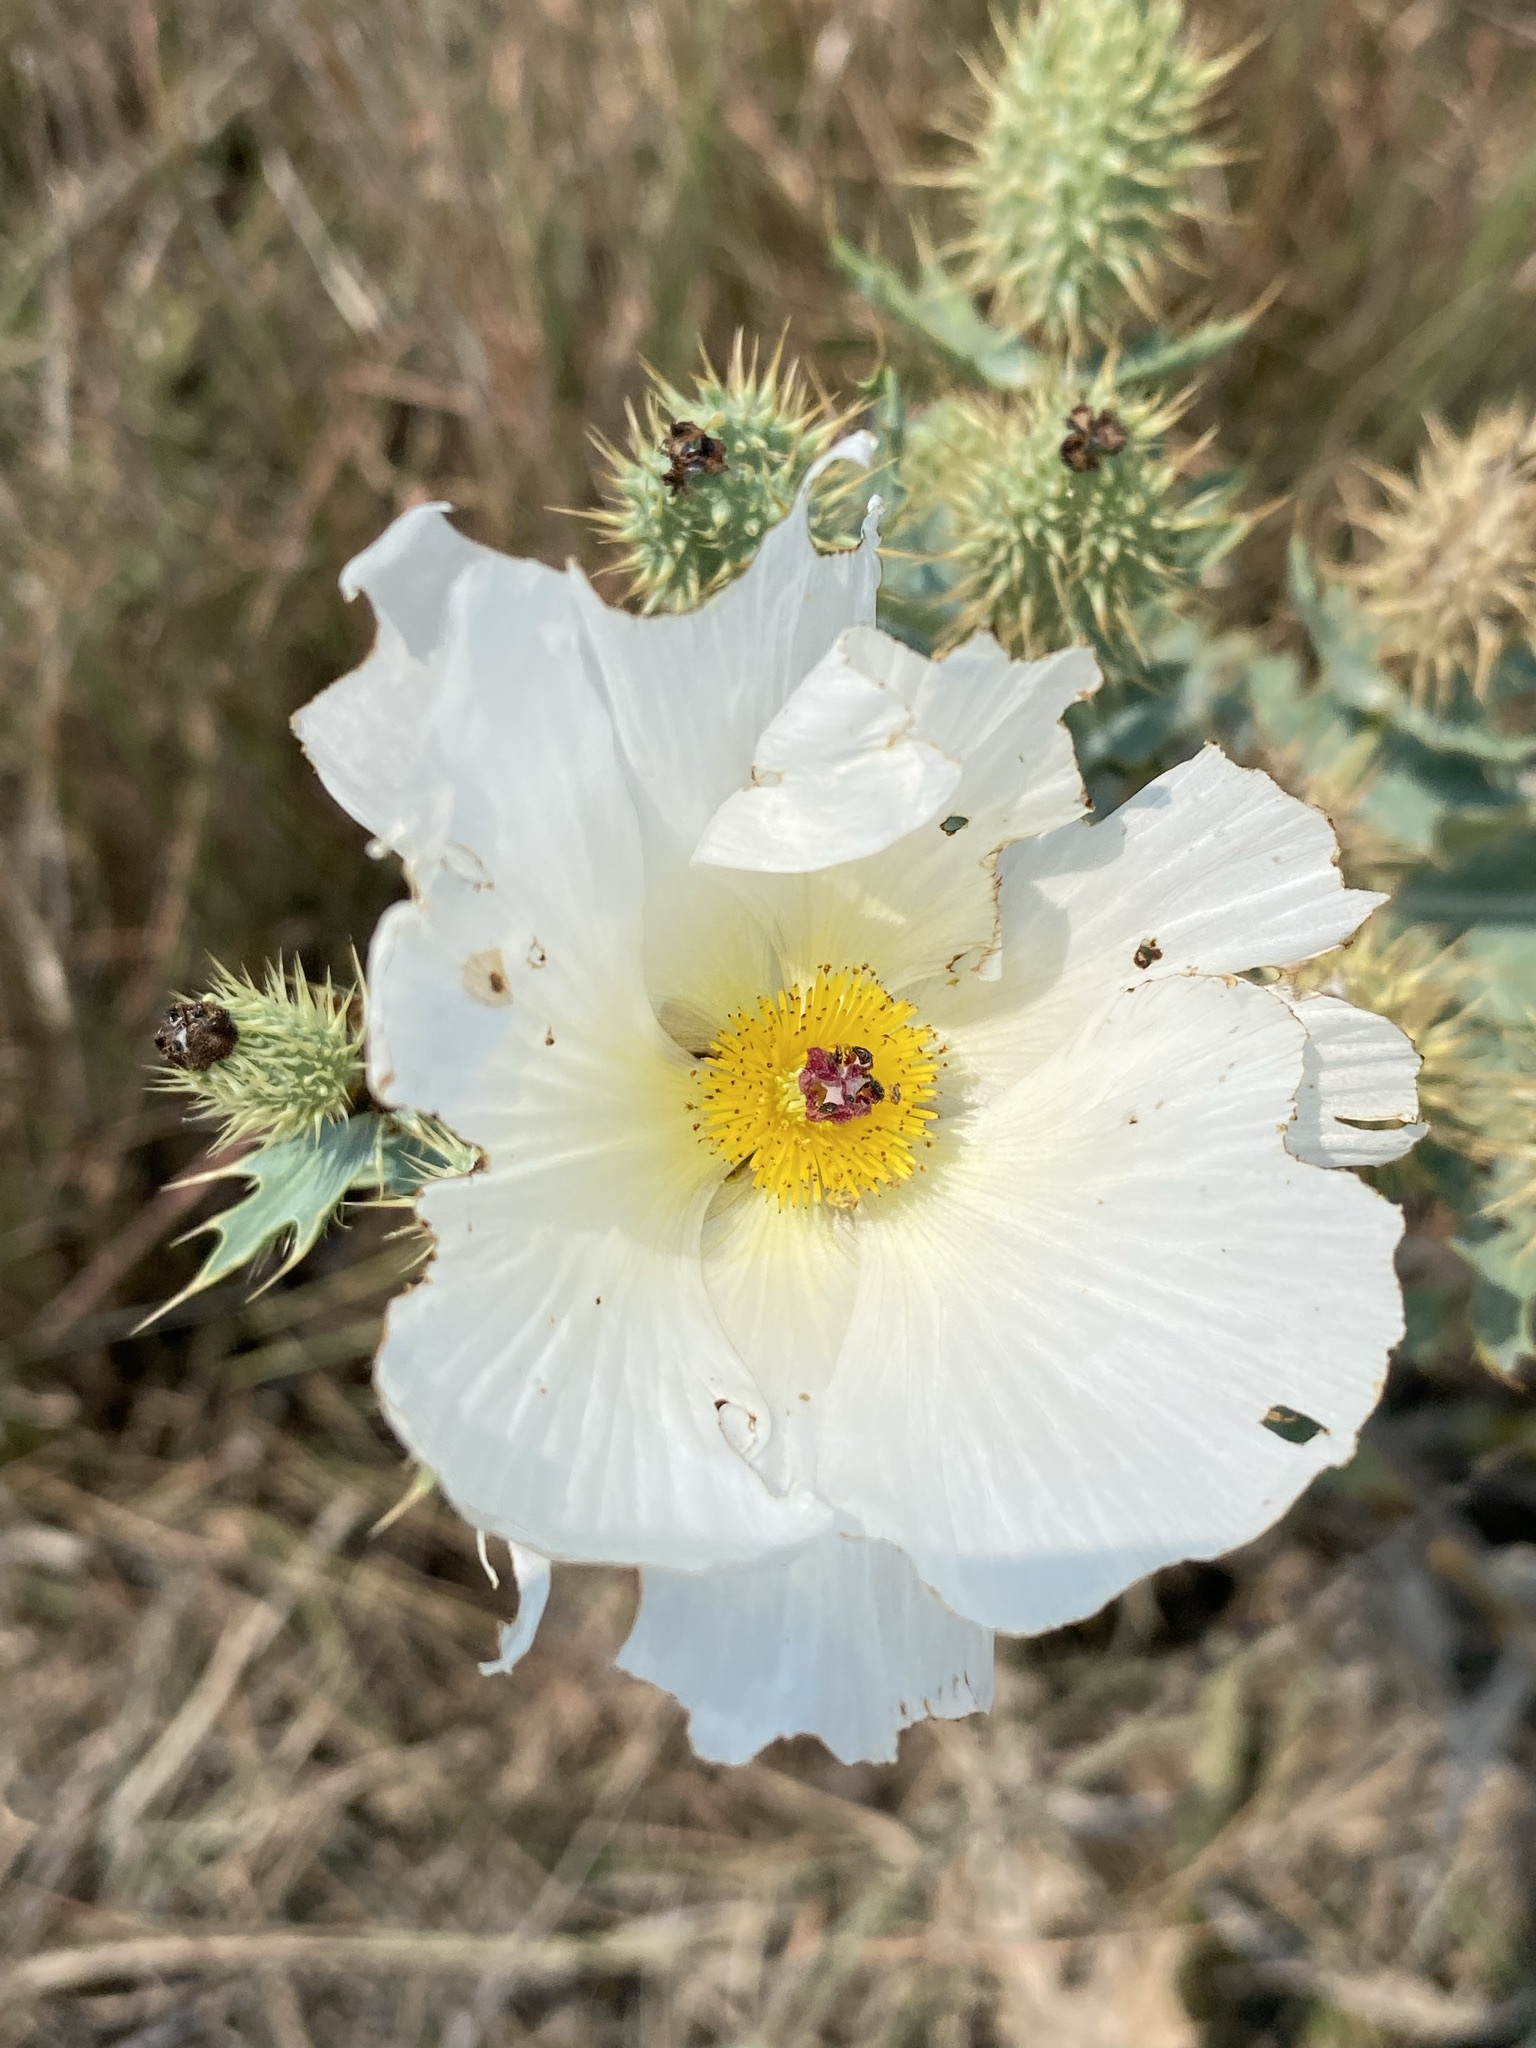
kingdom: Plantae
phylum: Tracheophyta
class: Magnoliopsida
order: Ranunculales
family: Papaveraceae
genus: Argemone
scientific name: Argemone polyanthemos
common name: Plains prickly-poppy
